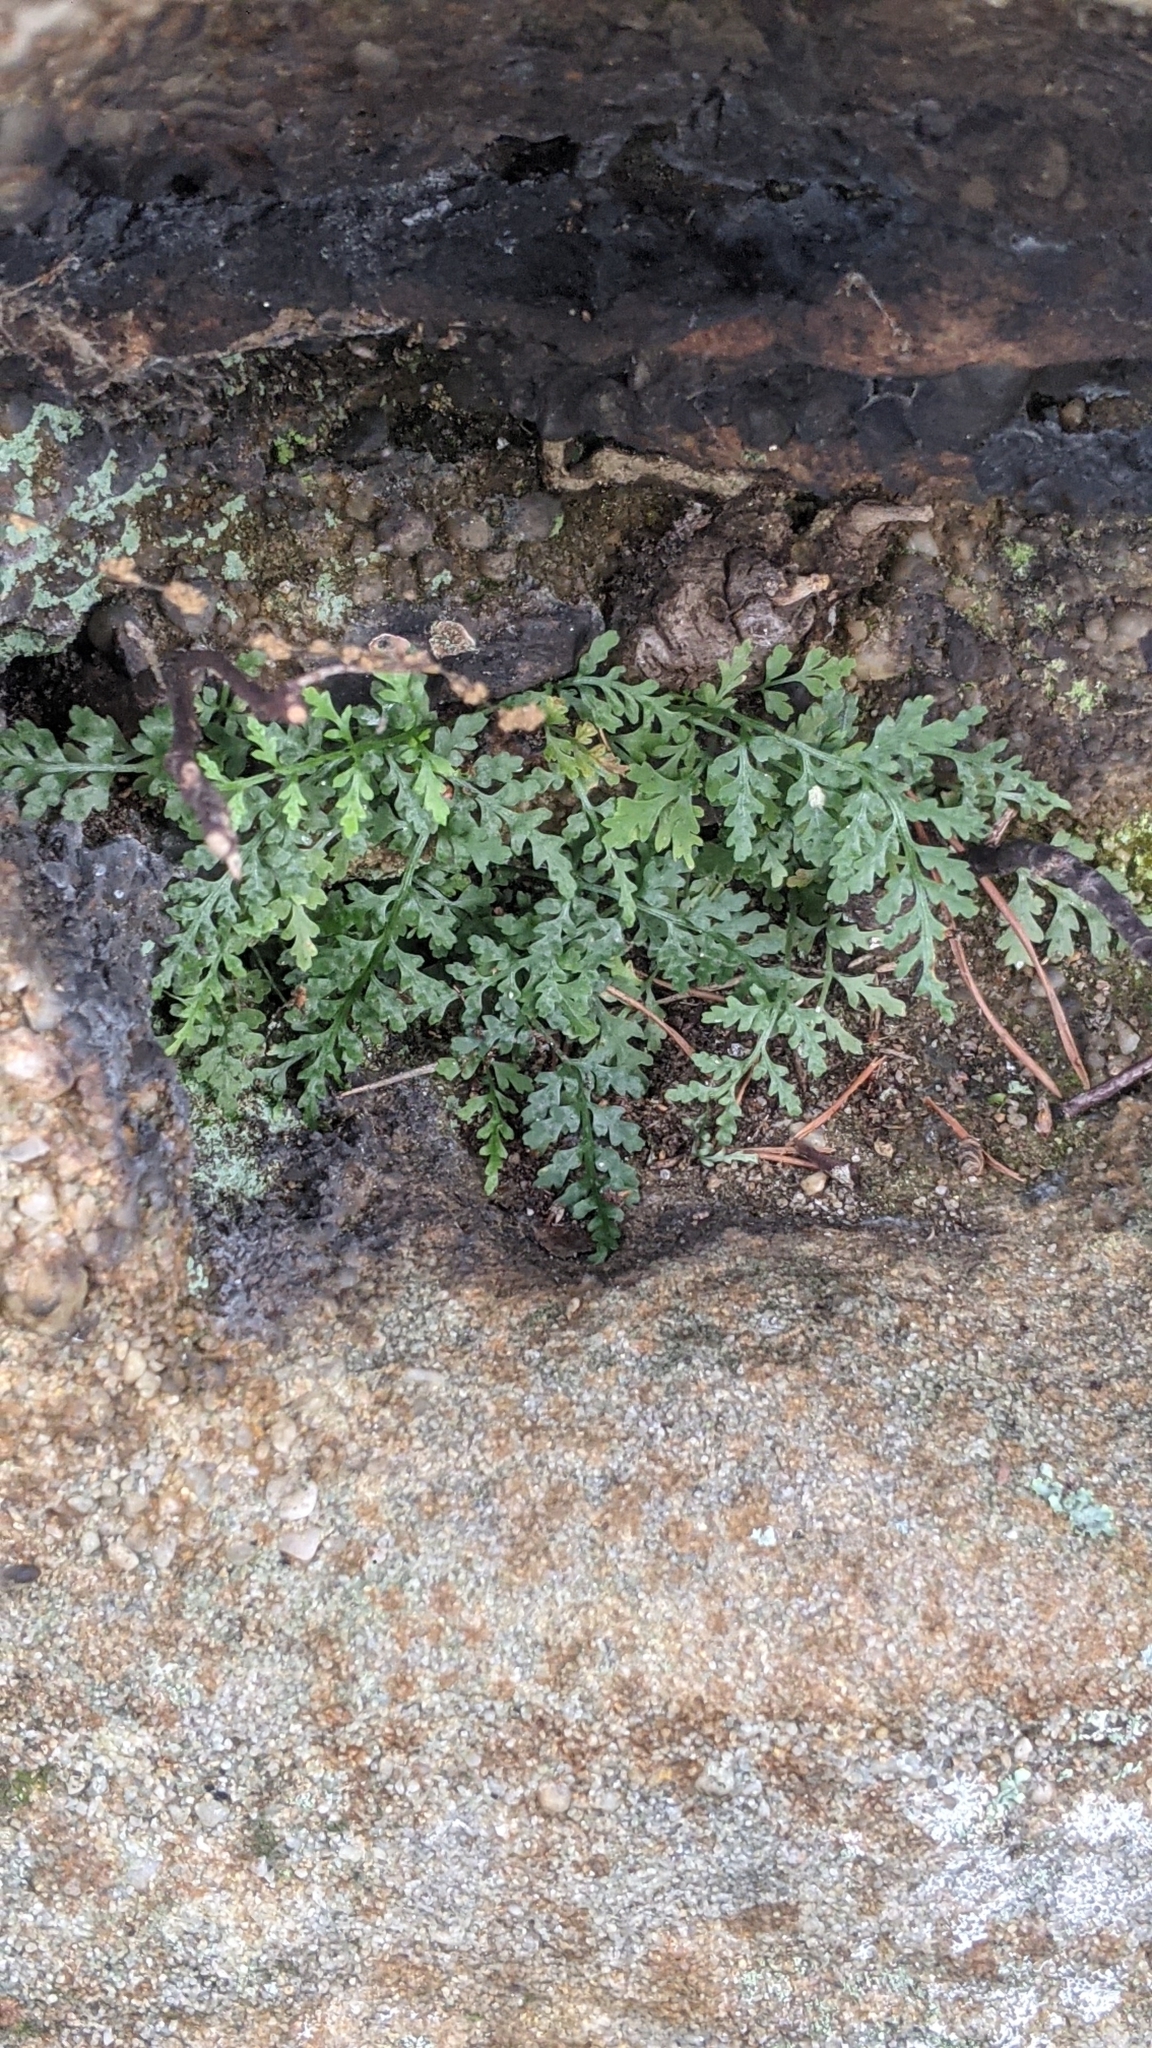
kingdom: Plantae
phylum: Tracheophyta
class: Polypodiopsida
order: Polypodiales
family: Aspleniaceae
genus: Asplenium
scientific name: Asplenium montanum
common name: Mountain spleenwort
